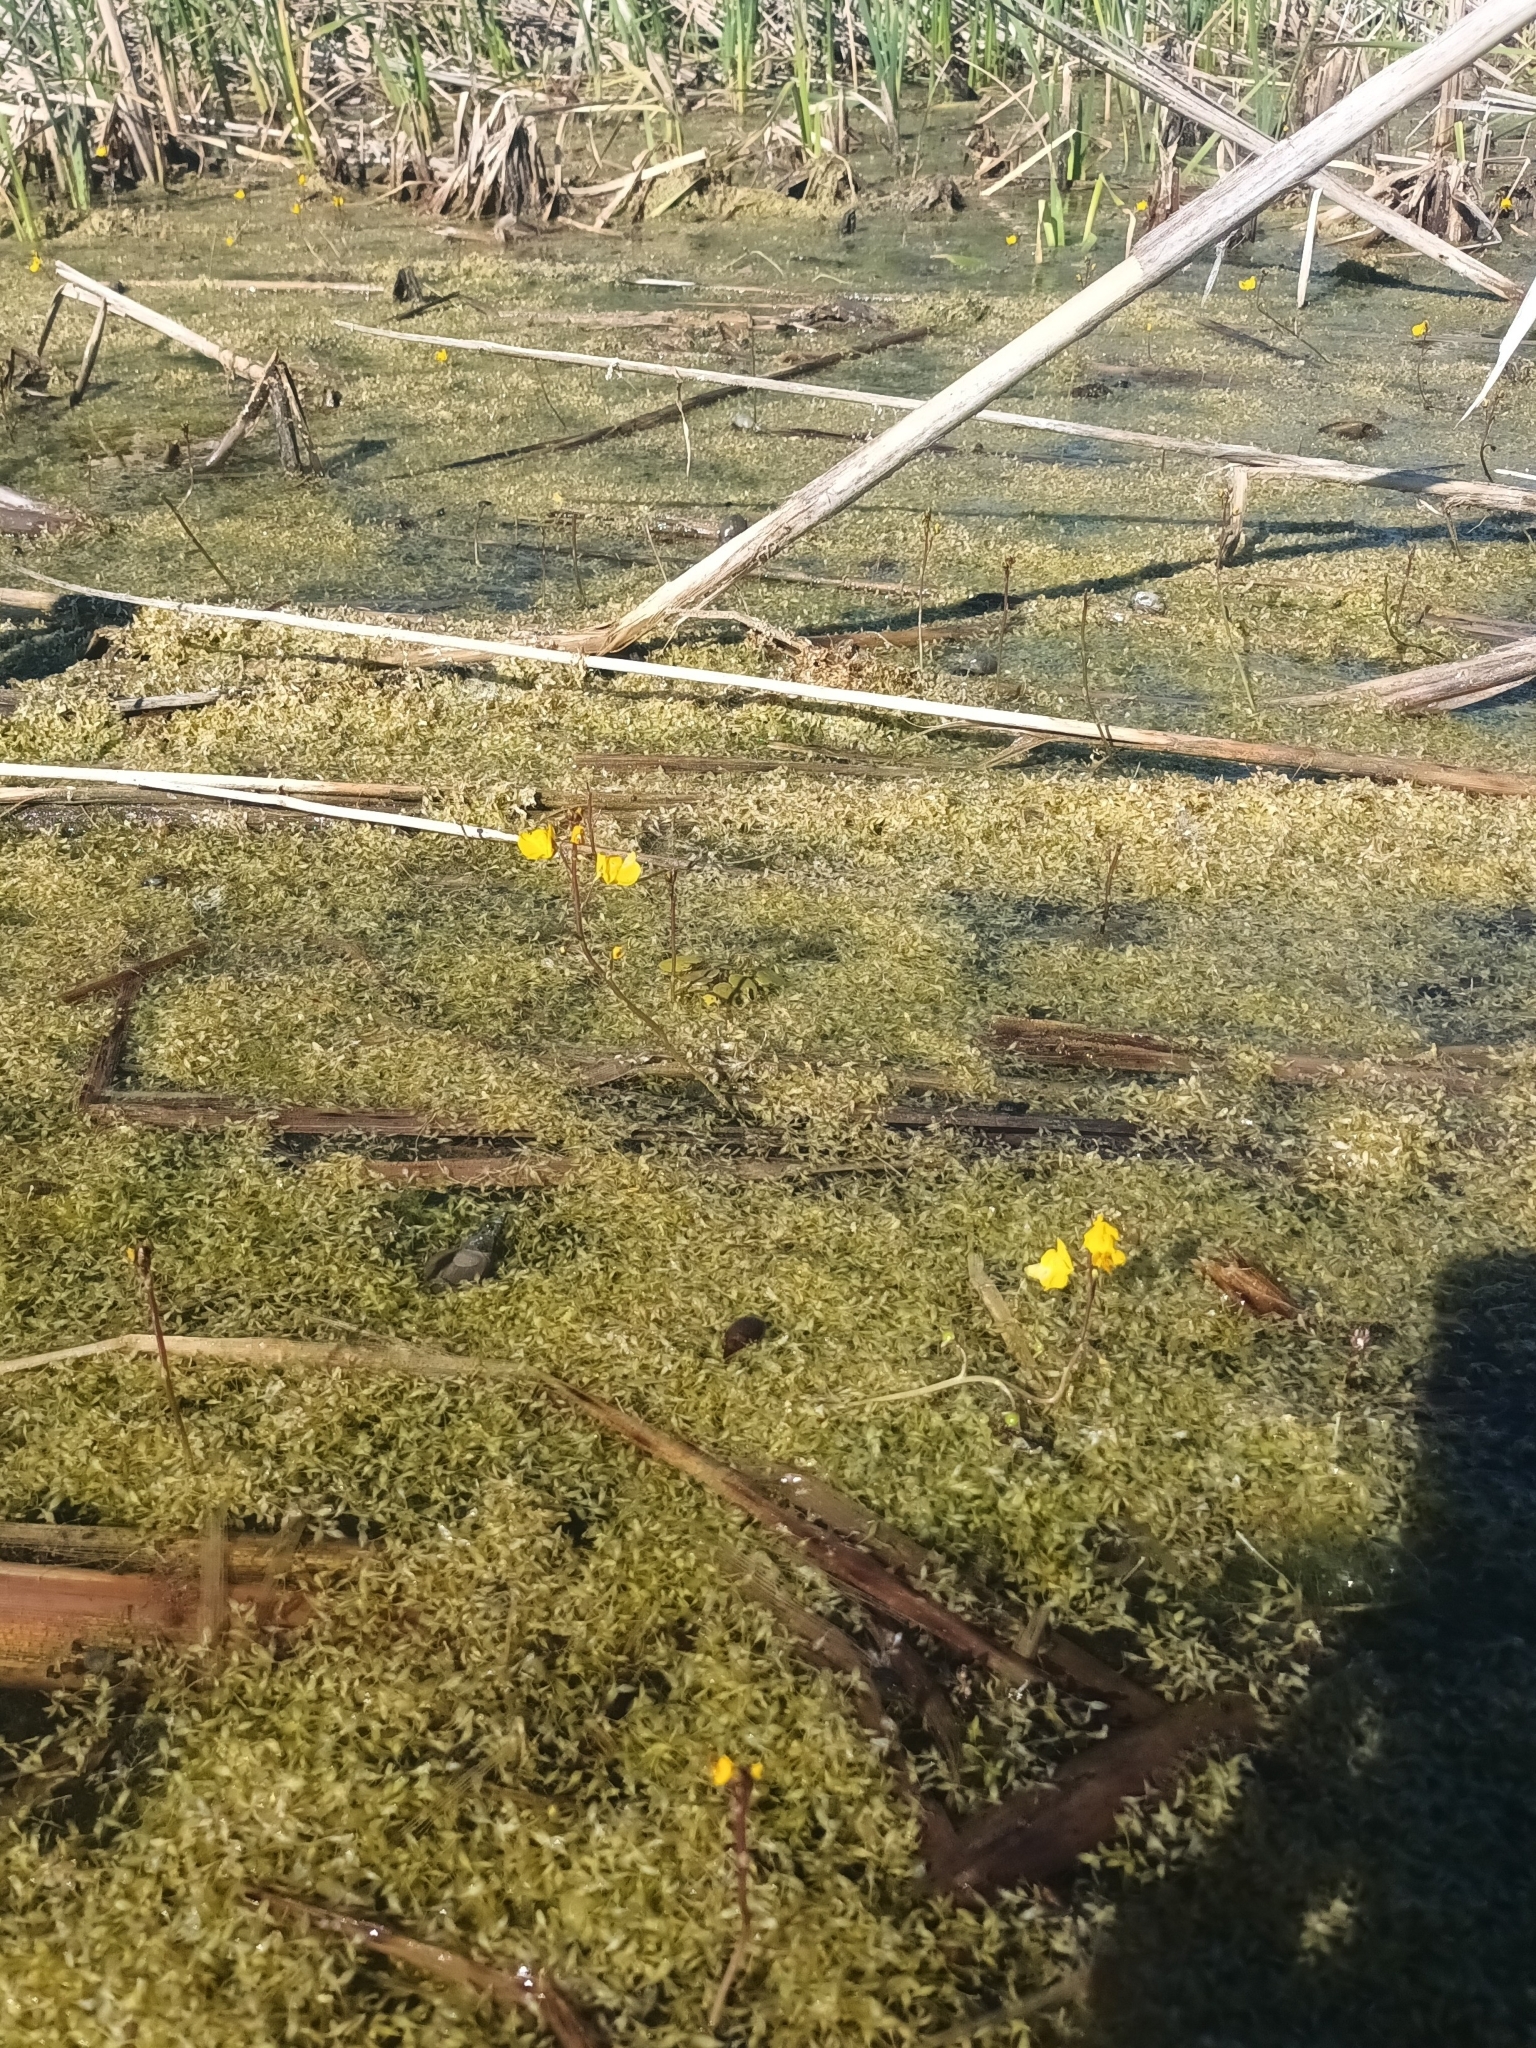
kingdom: Plantae
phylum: Tracheophyta
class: Magnoliopsida
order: Lamiales
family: Lentibulariaceae
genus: Utricularia
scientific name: Utricularia vulgaris
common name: Greater bladderwort
